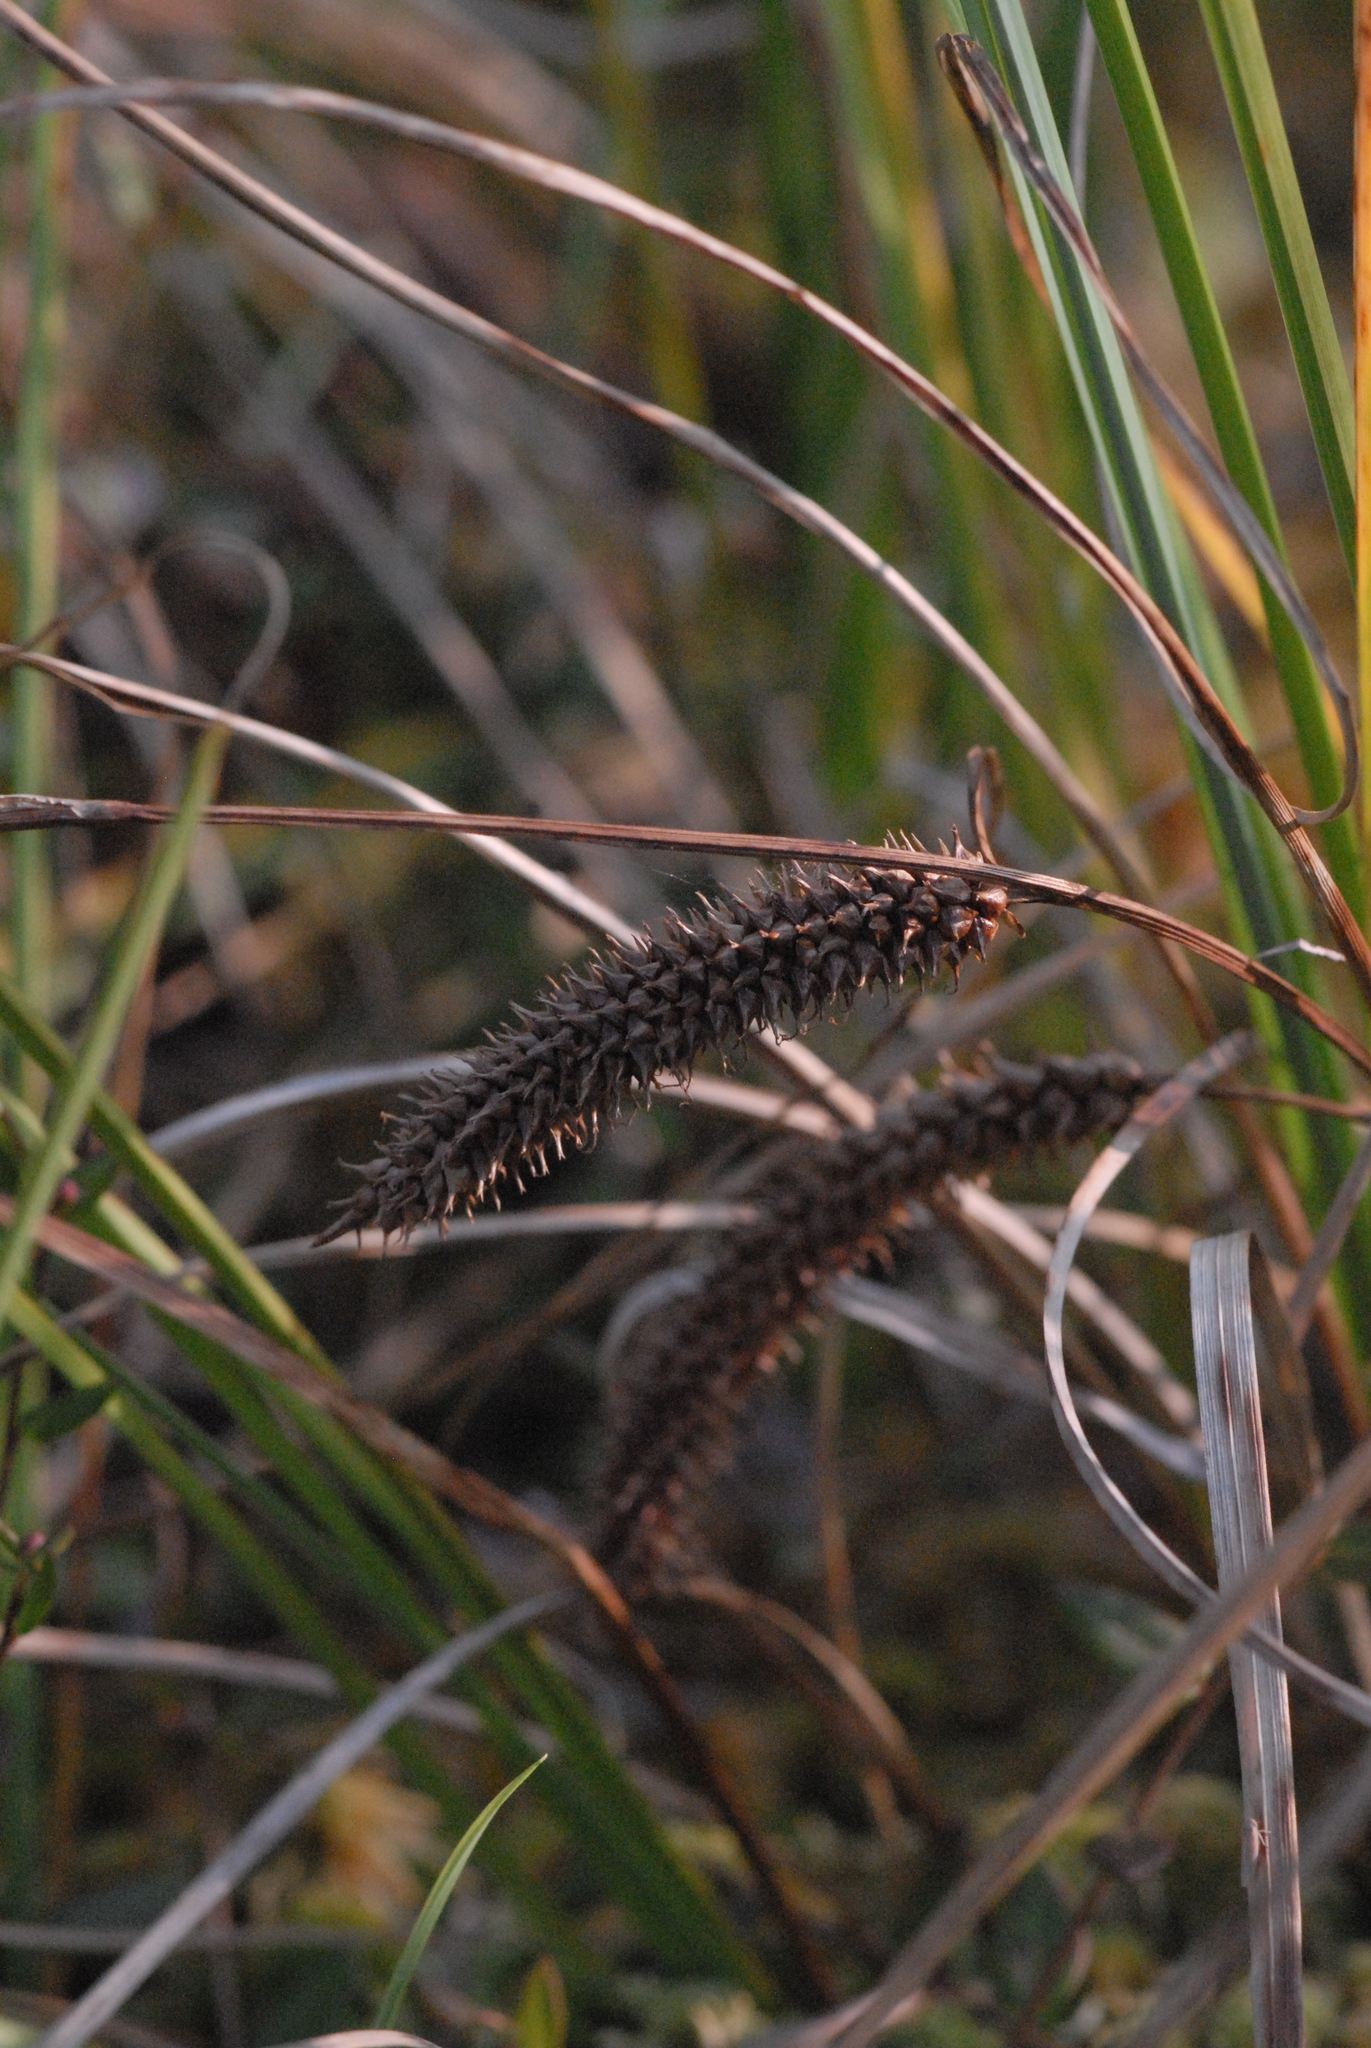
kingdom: Plantae
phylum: Tracheophyta
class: Liliopsida
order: Poales
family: Cyperaceae
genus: Carex
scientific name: Carex pseudocyperus
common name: Cyperus sedge
